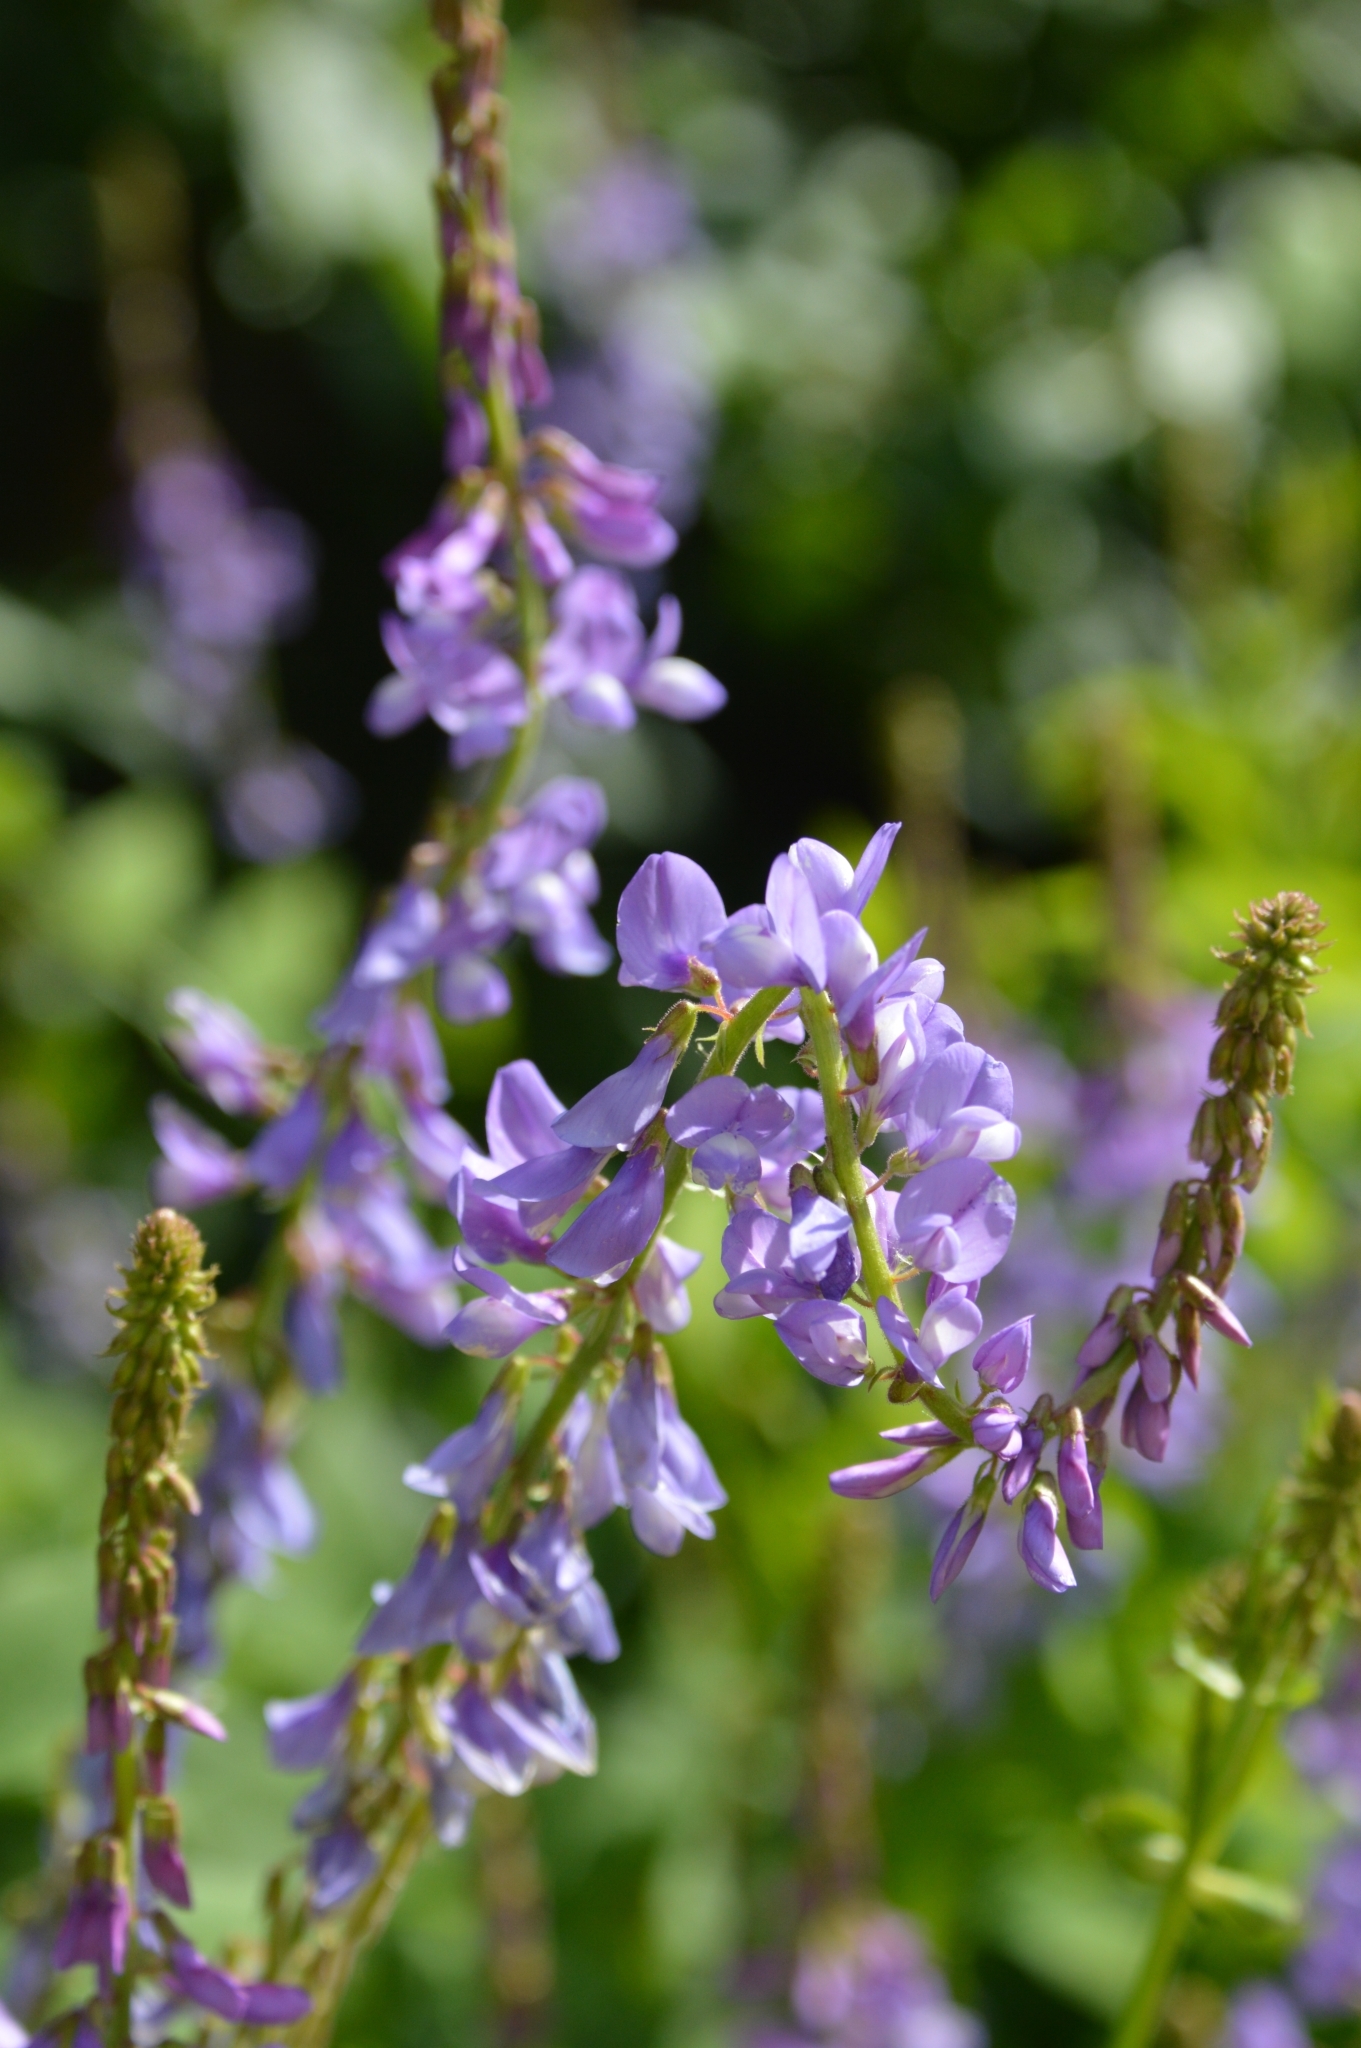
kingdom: Plantae
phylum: Tracheophyta
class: Magnoliopsida
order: Fabales
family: Fabaceae
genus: Galega
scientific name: Galega orientalis
